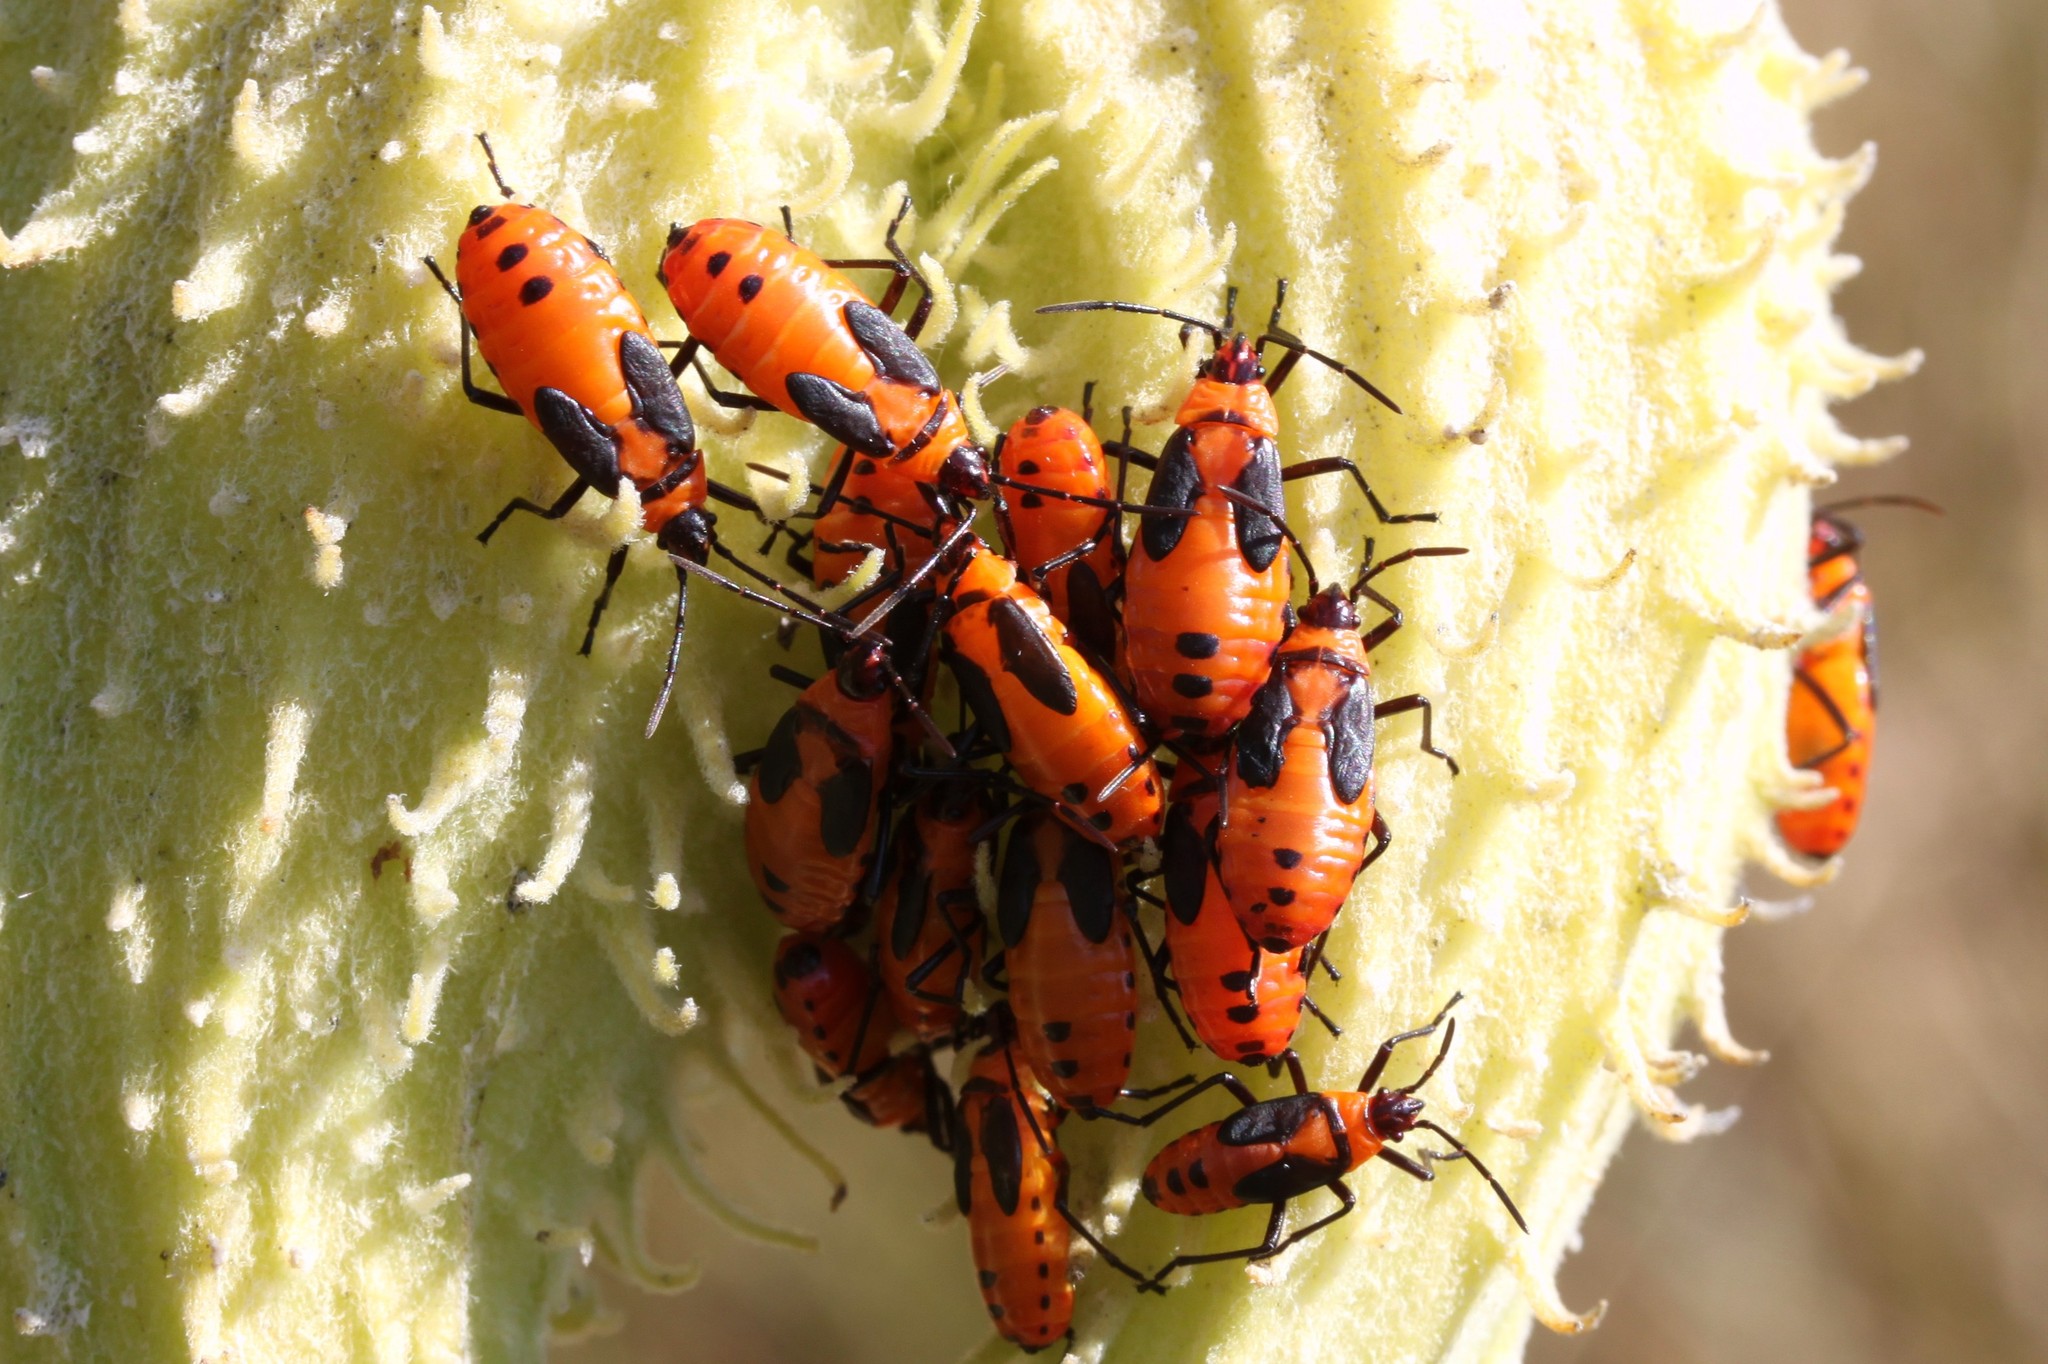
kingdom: Animalia
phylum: Arthropoda
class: Insecta
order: Hemiptera
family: Lygaeidae
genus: Oncopeltus
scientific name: Oncopeltus fasciatus
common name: Large milkweed bug
